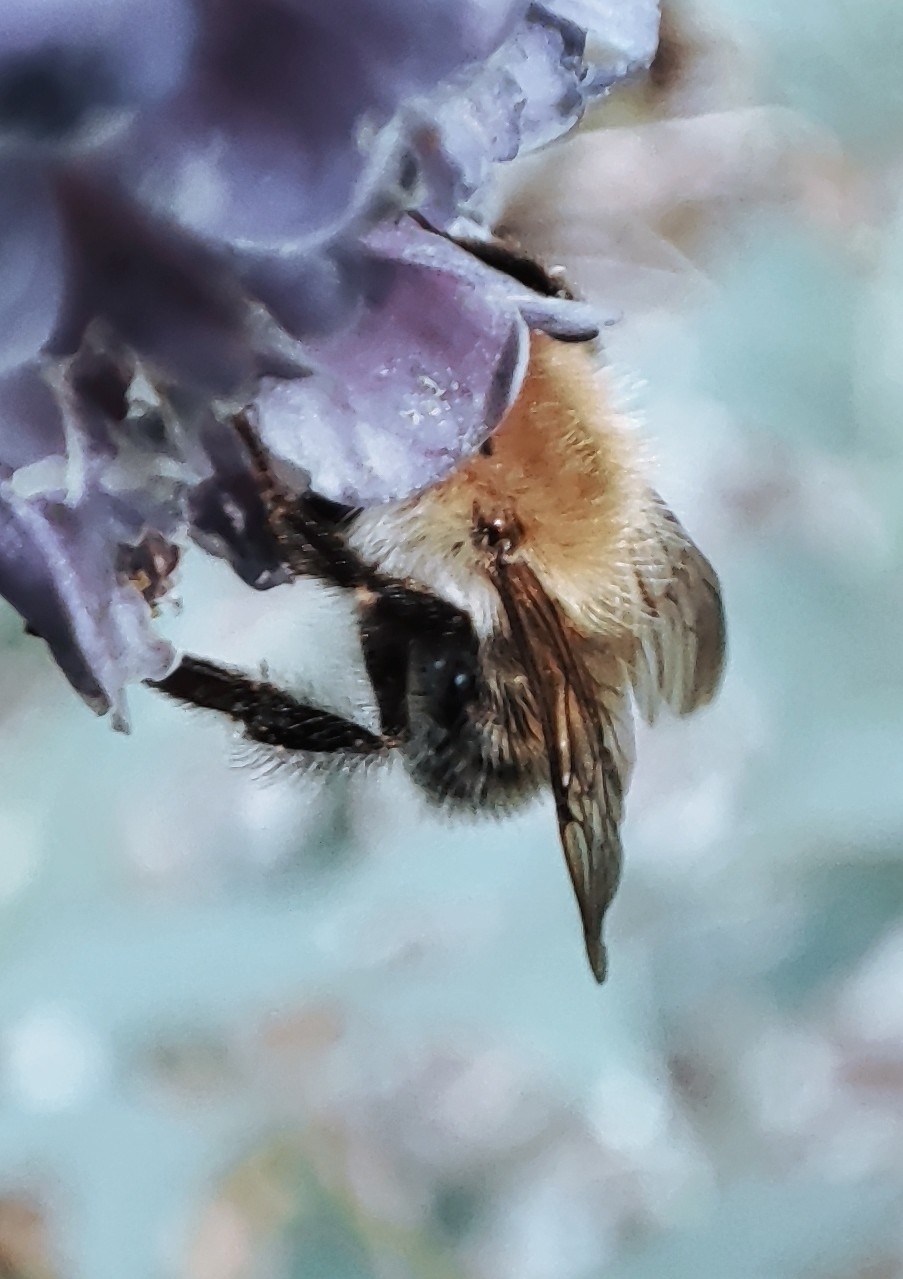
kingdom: Animalia
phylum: Arthropoda
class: Insecta
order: Hymenoptera
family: Apidae
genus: Bombus
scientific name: Bombus schrencki
